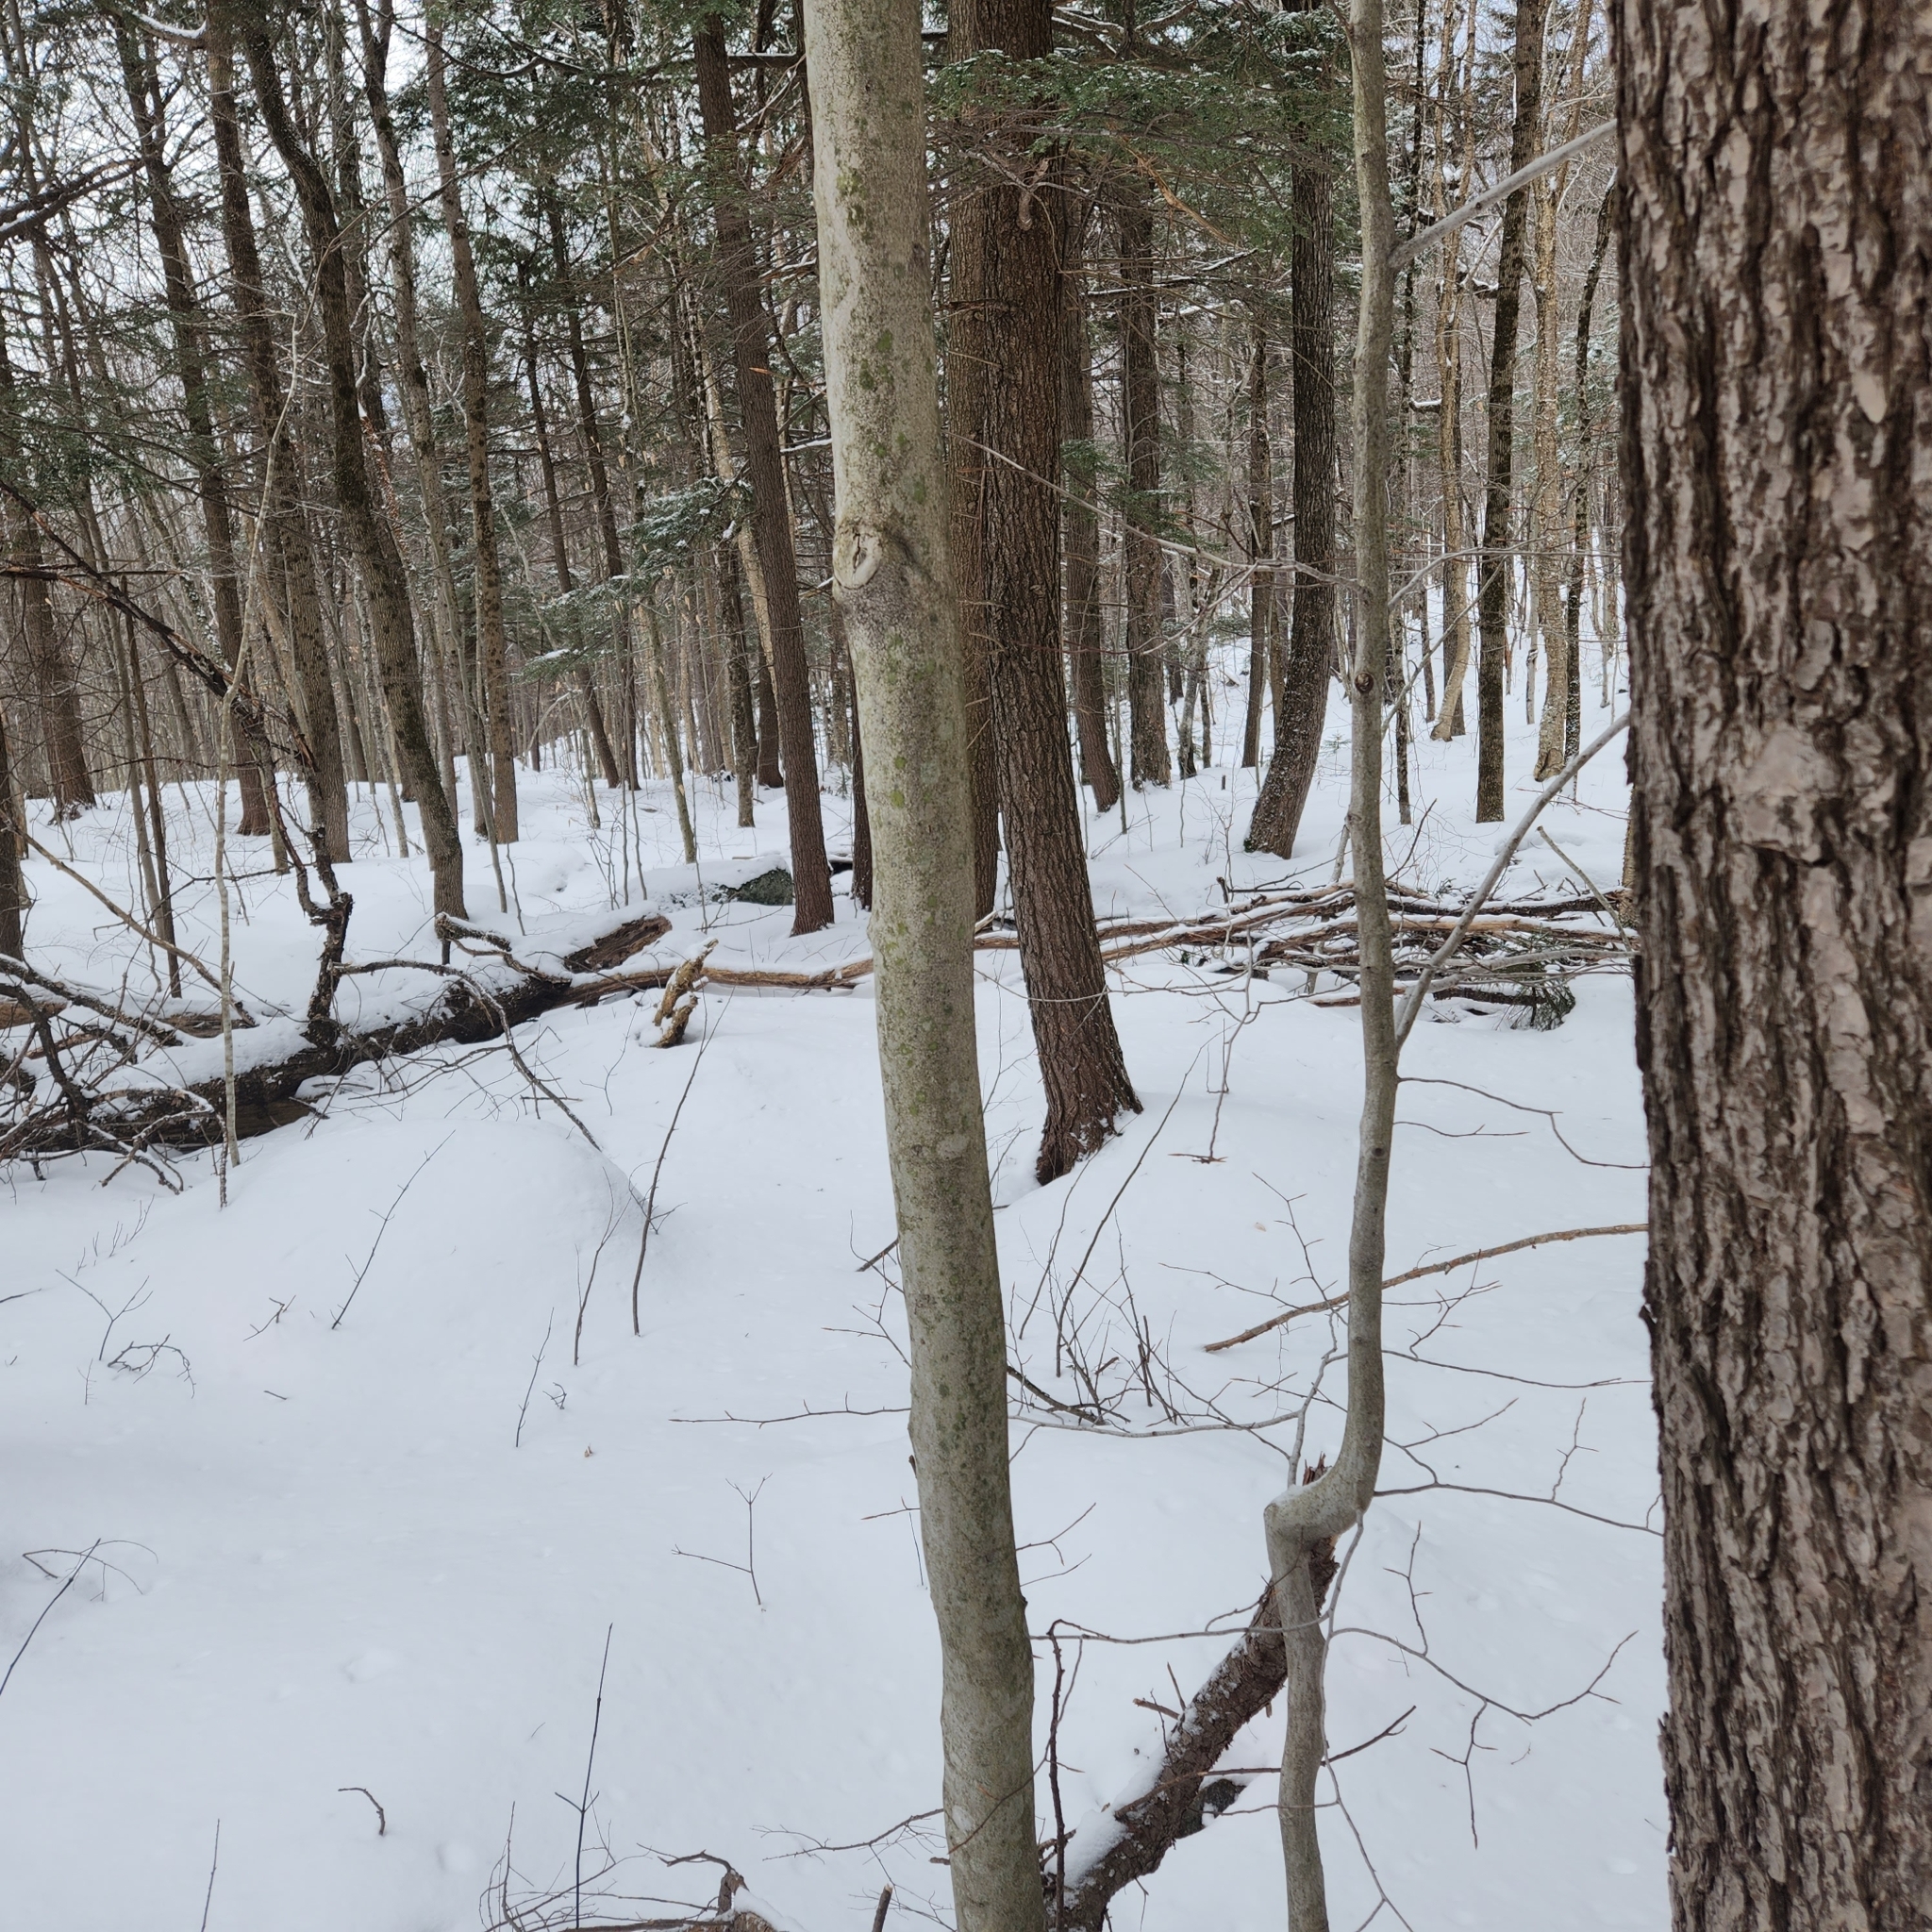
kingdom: Plantae
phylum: Tracheophyta
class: Pinopsida
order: Pinales
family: Pinaceae
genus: Tsuga
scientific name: Tsuga canadensis
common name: Eastern hemlock
